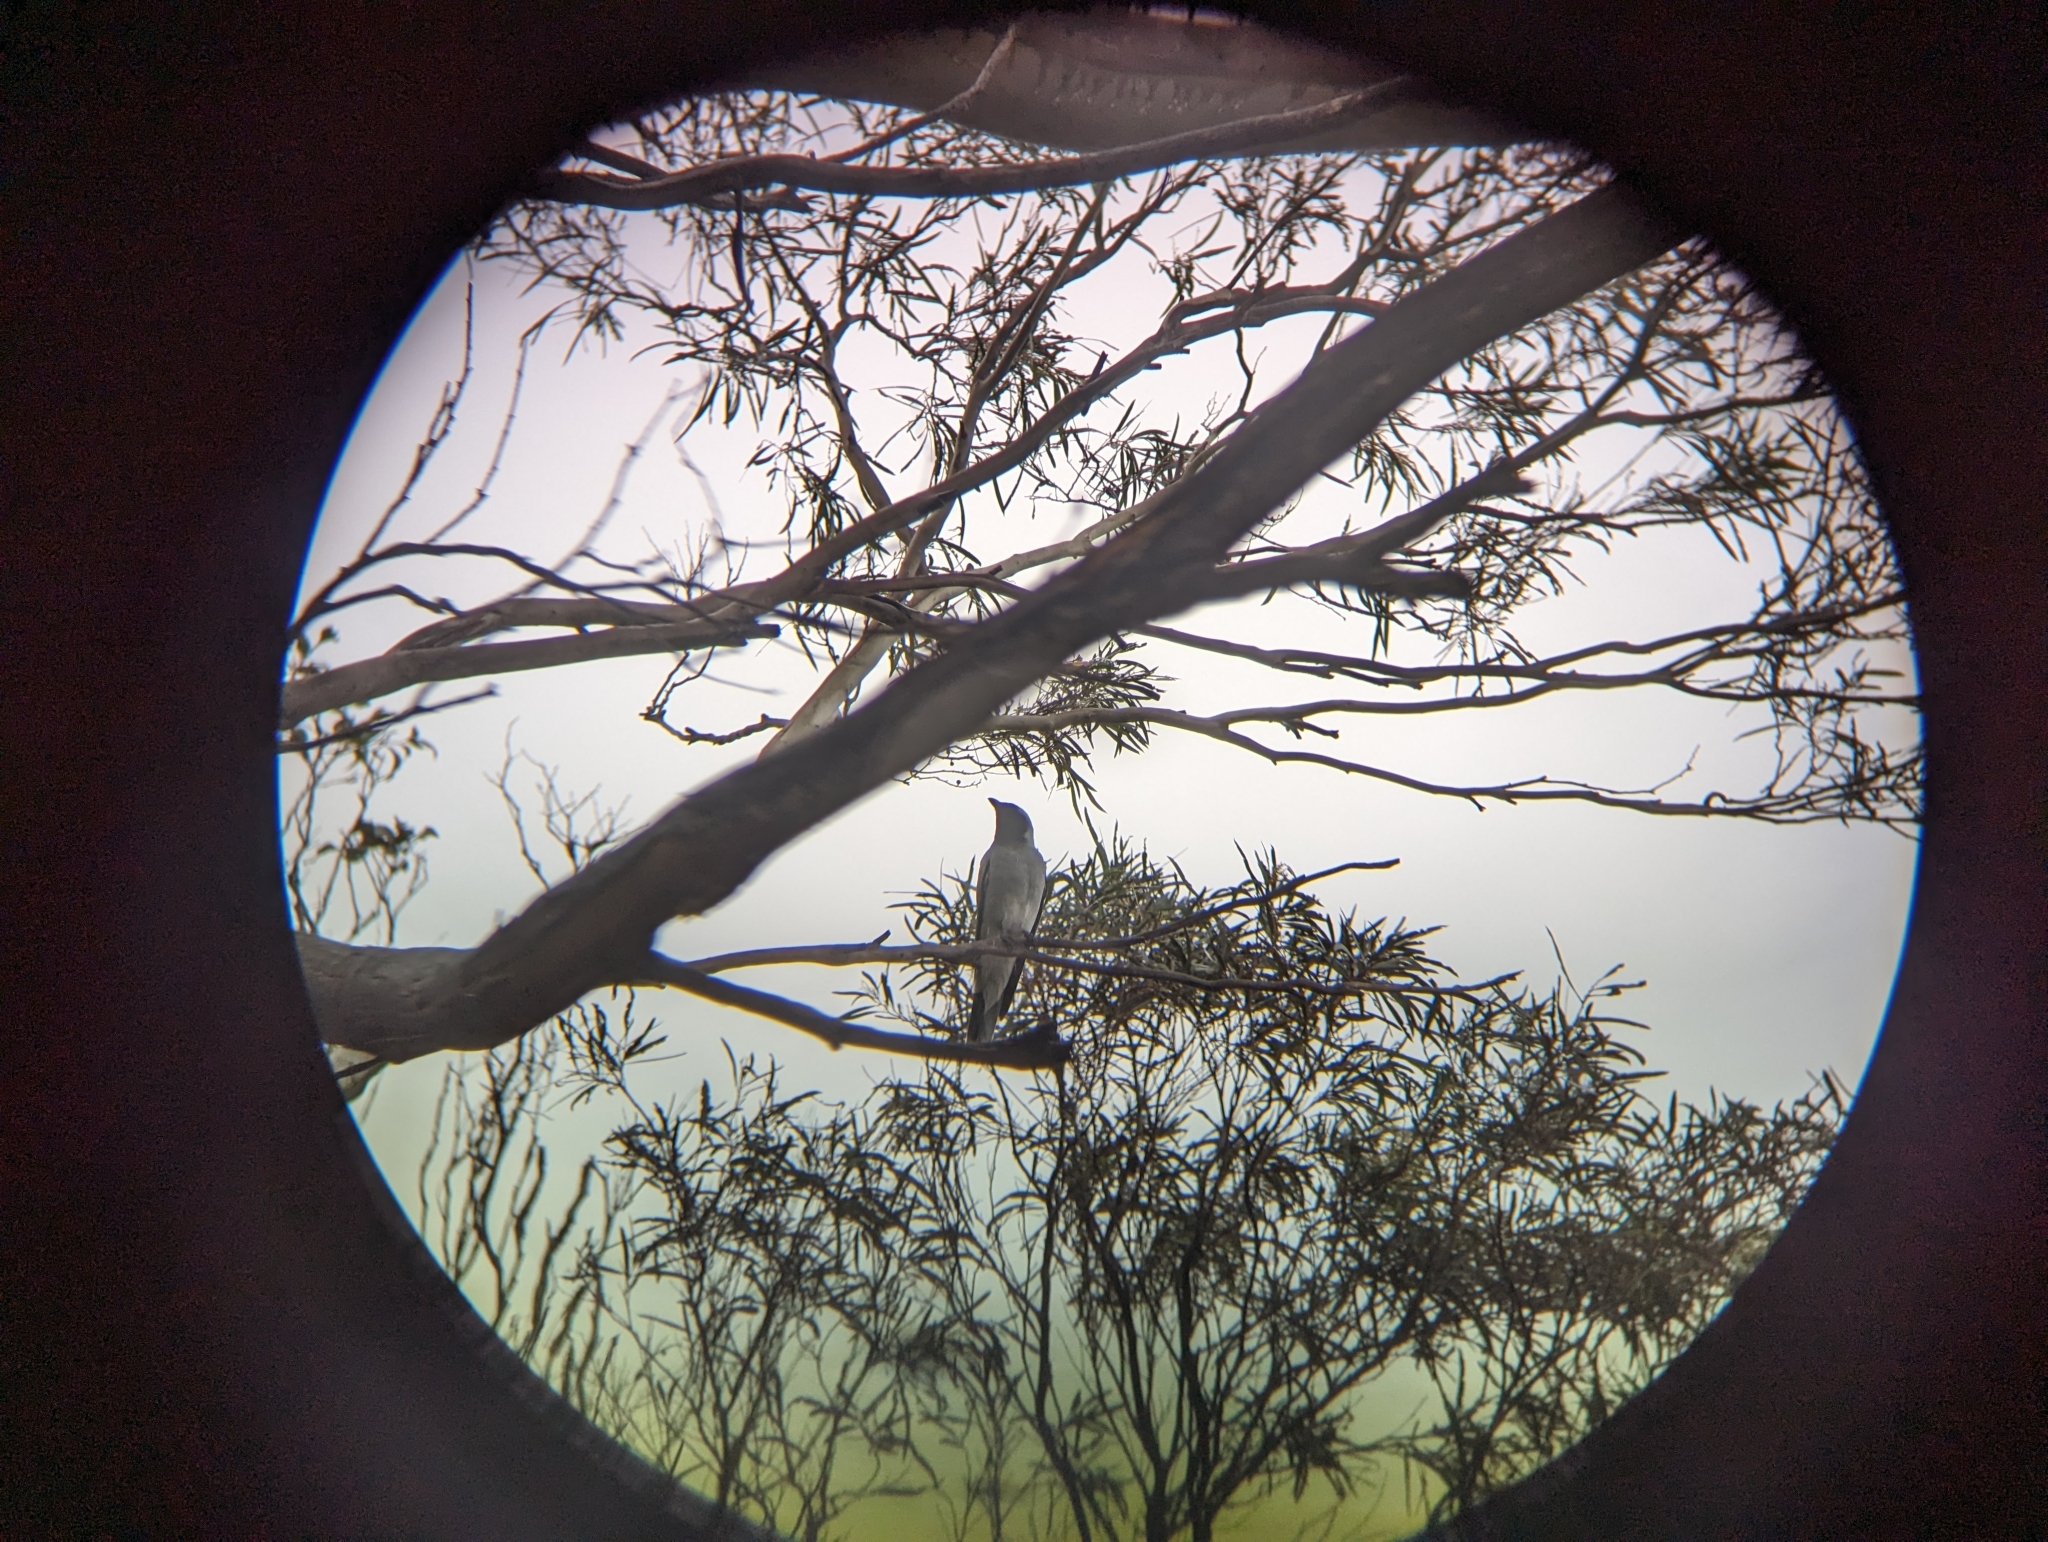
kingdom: Animalia
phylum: Chordata
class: Aves
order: Passeriformes
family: Campephagidae
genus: Coracina
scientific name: Coracina novaehollandiae
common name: Black-faced cuckooshrike
